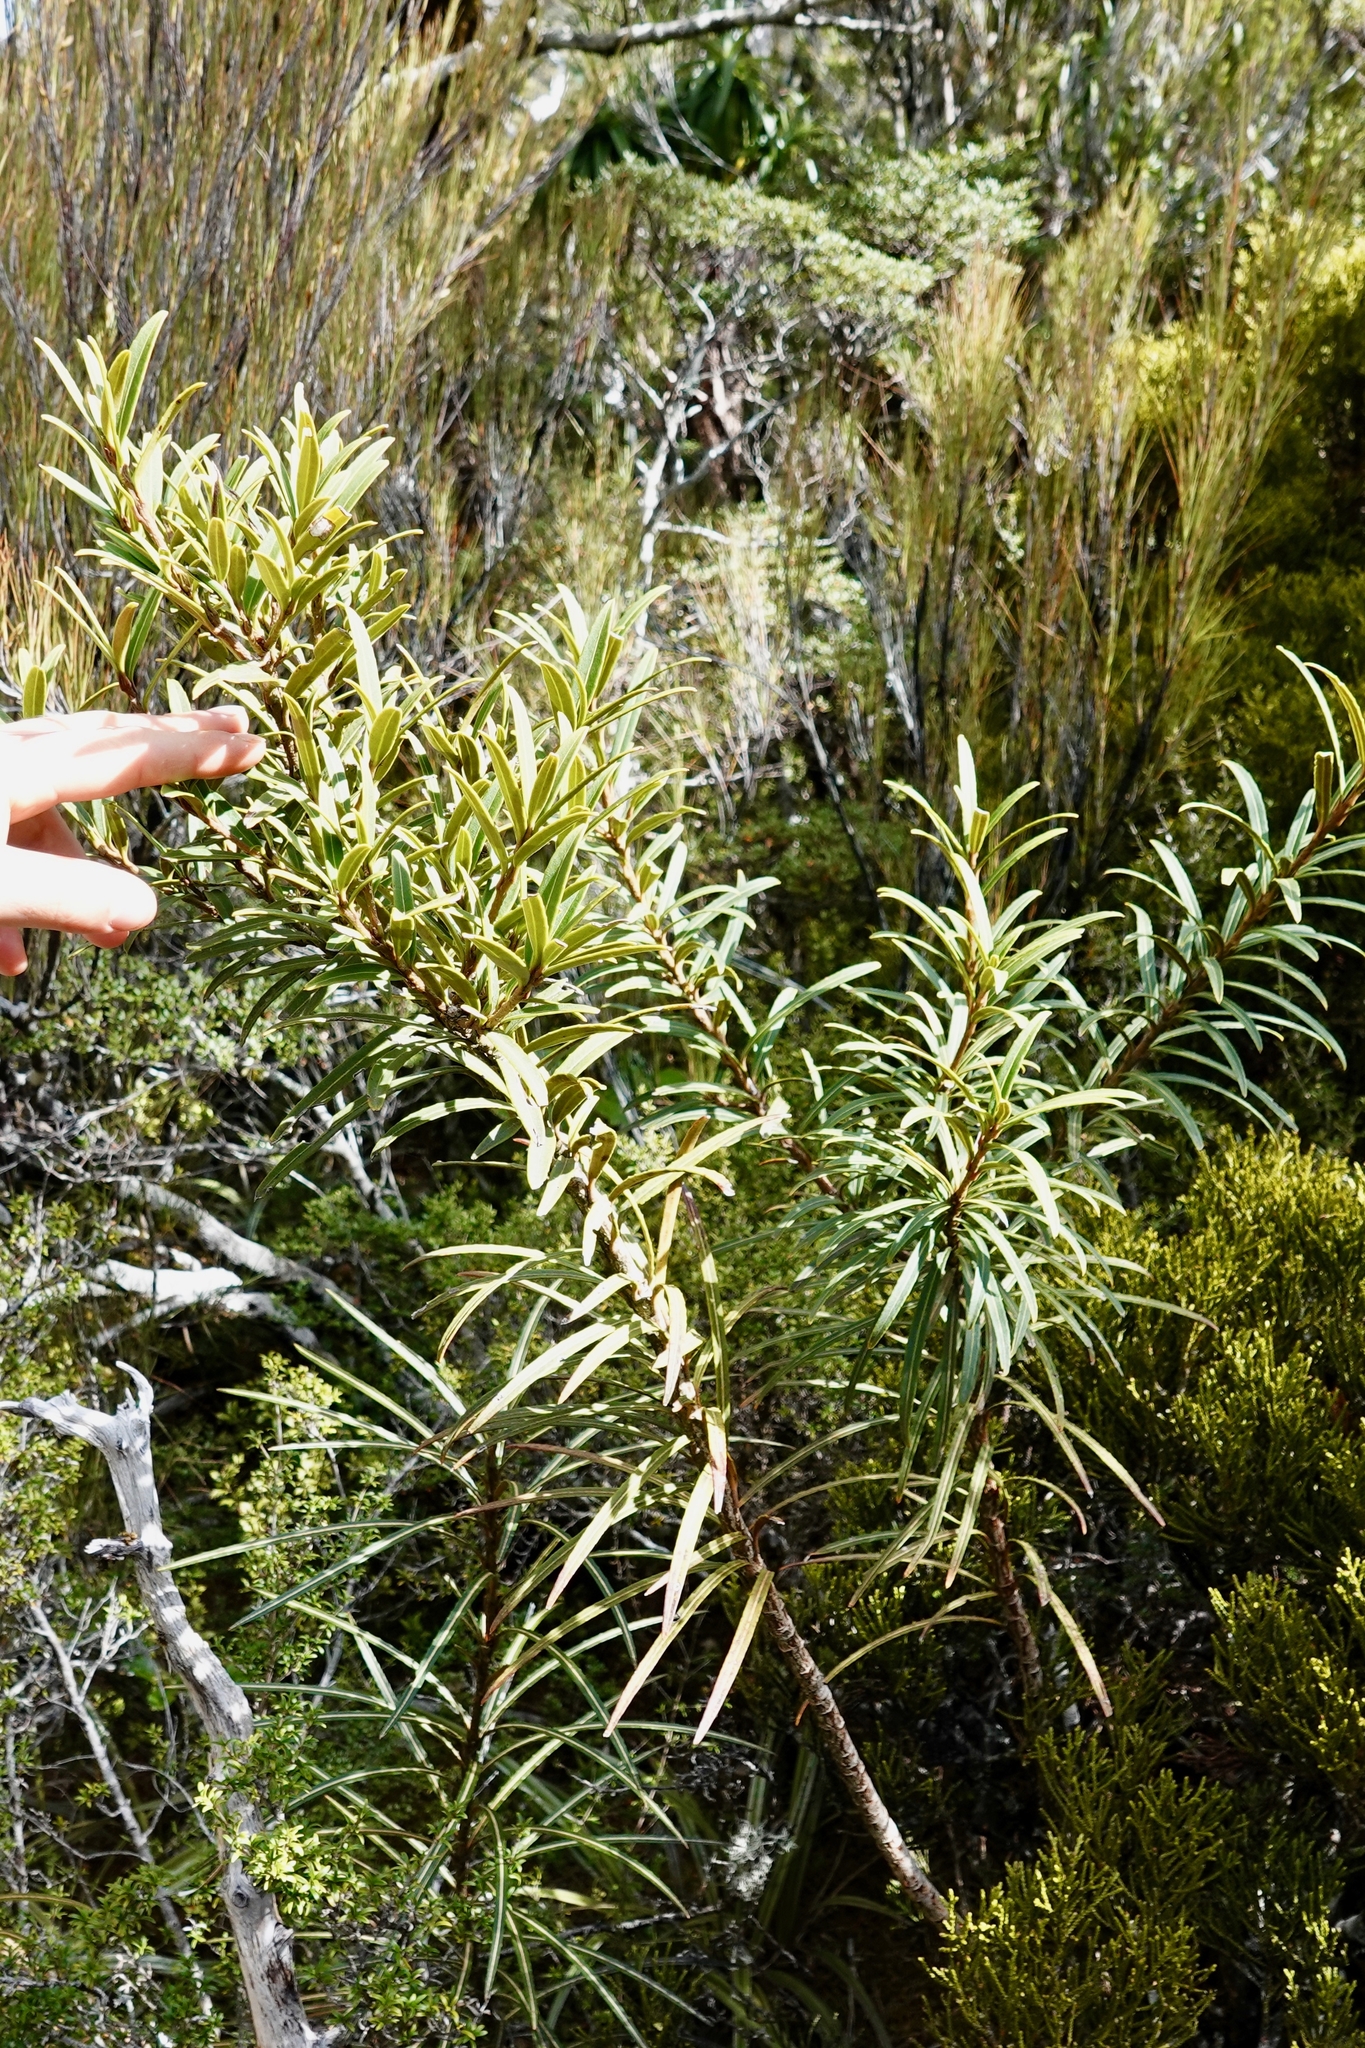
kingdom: Plantae
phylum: Tracheophyta
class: Magnoliopsida
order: Apiales
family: Araliaceae
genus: Pseudopanax
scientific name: Pseudopanax linearis
